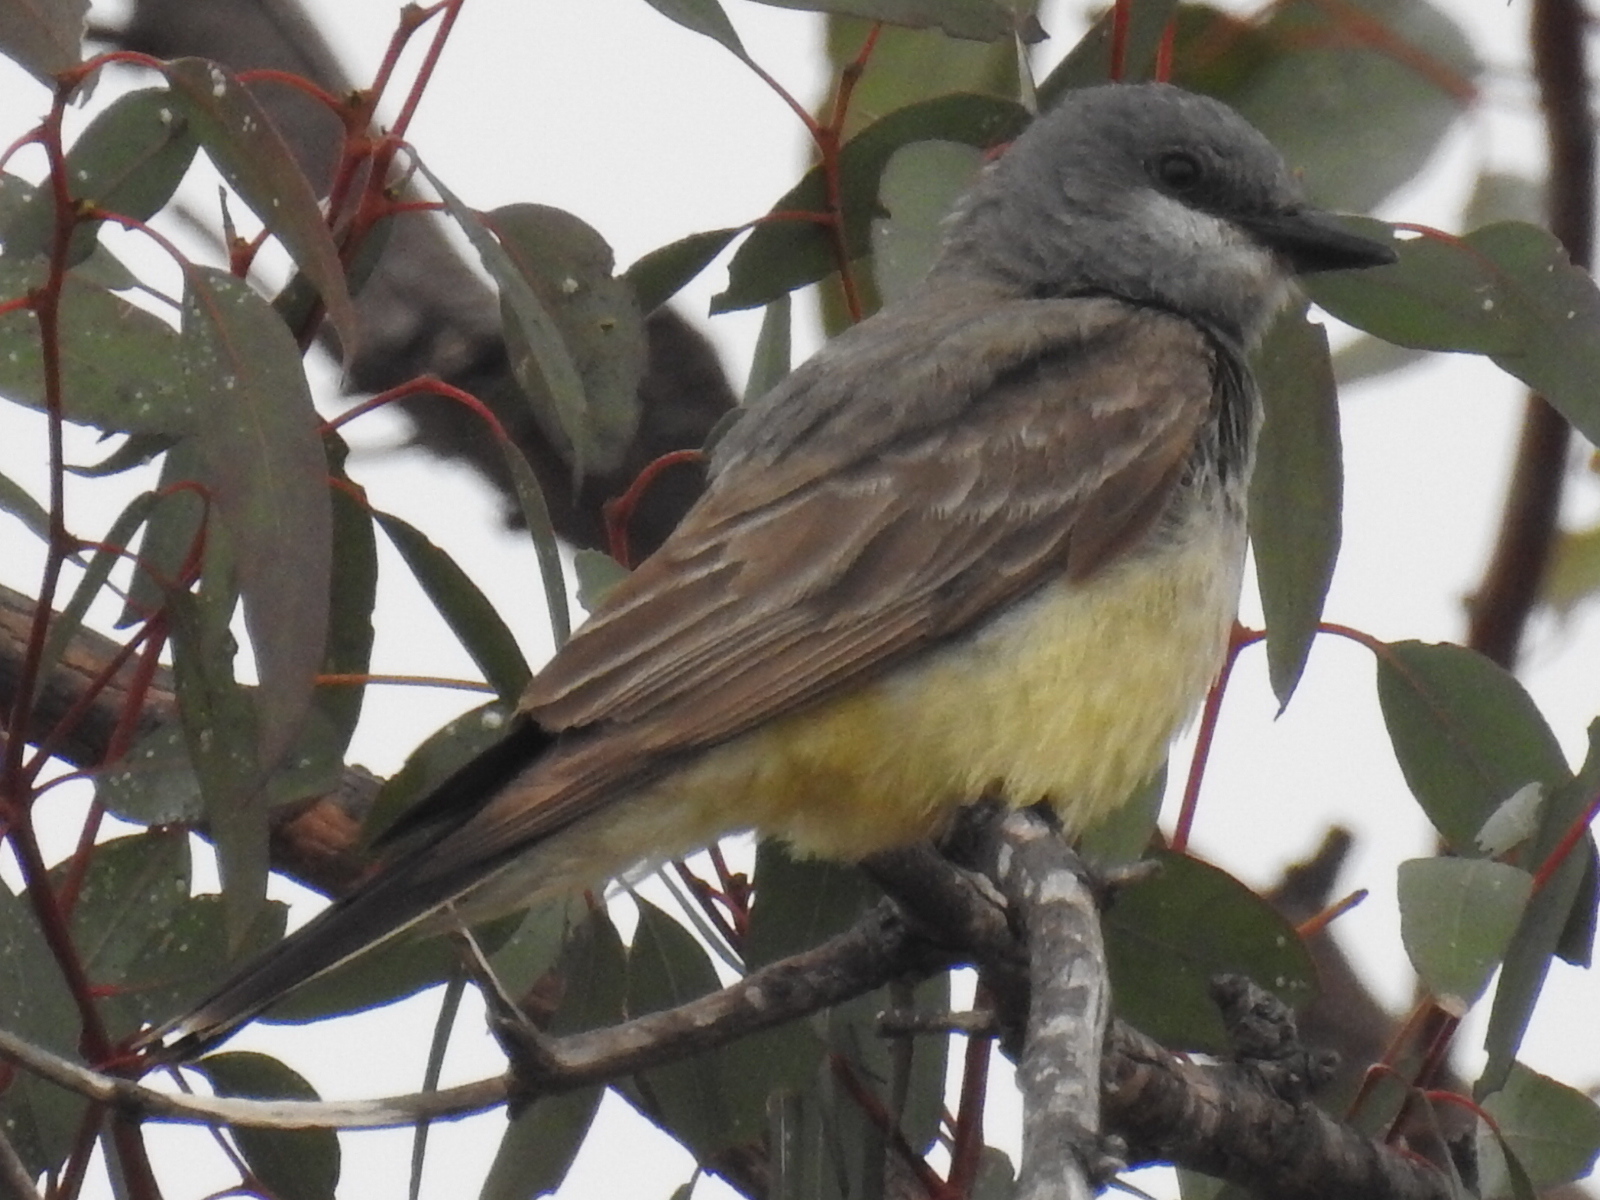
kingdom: Animalia
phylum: Chordata
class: Aves
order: Passeriformes
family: Tyrannidae
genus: Tyrannus
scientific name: Tyrannus vociferans
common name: Cassin's kingbird
